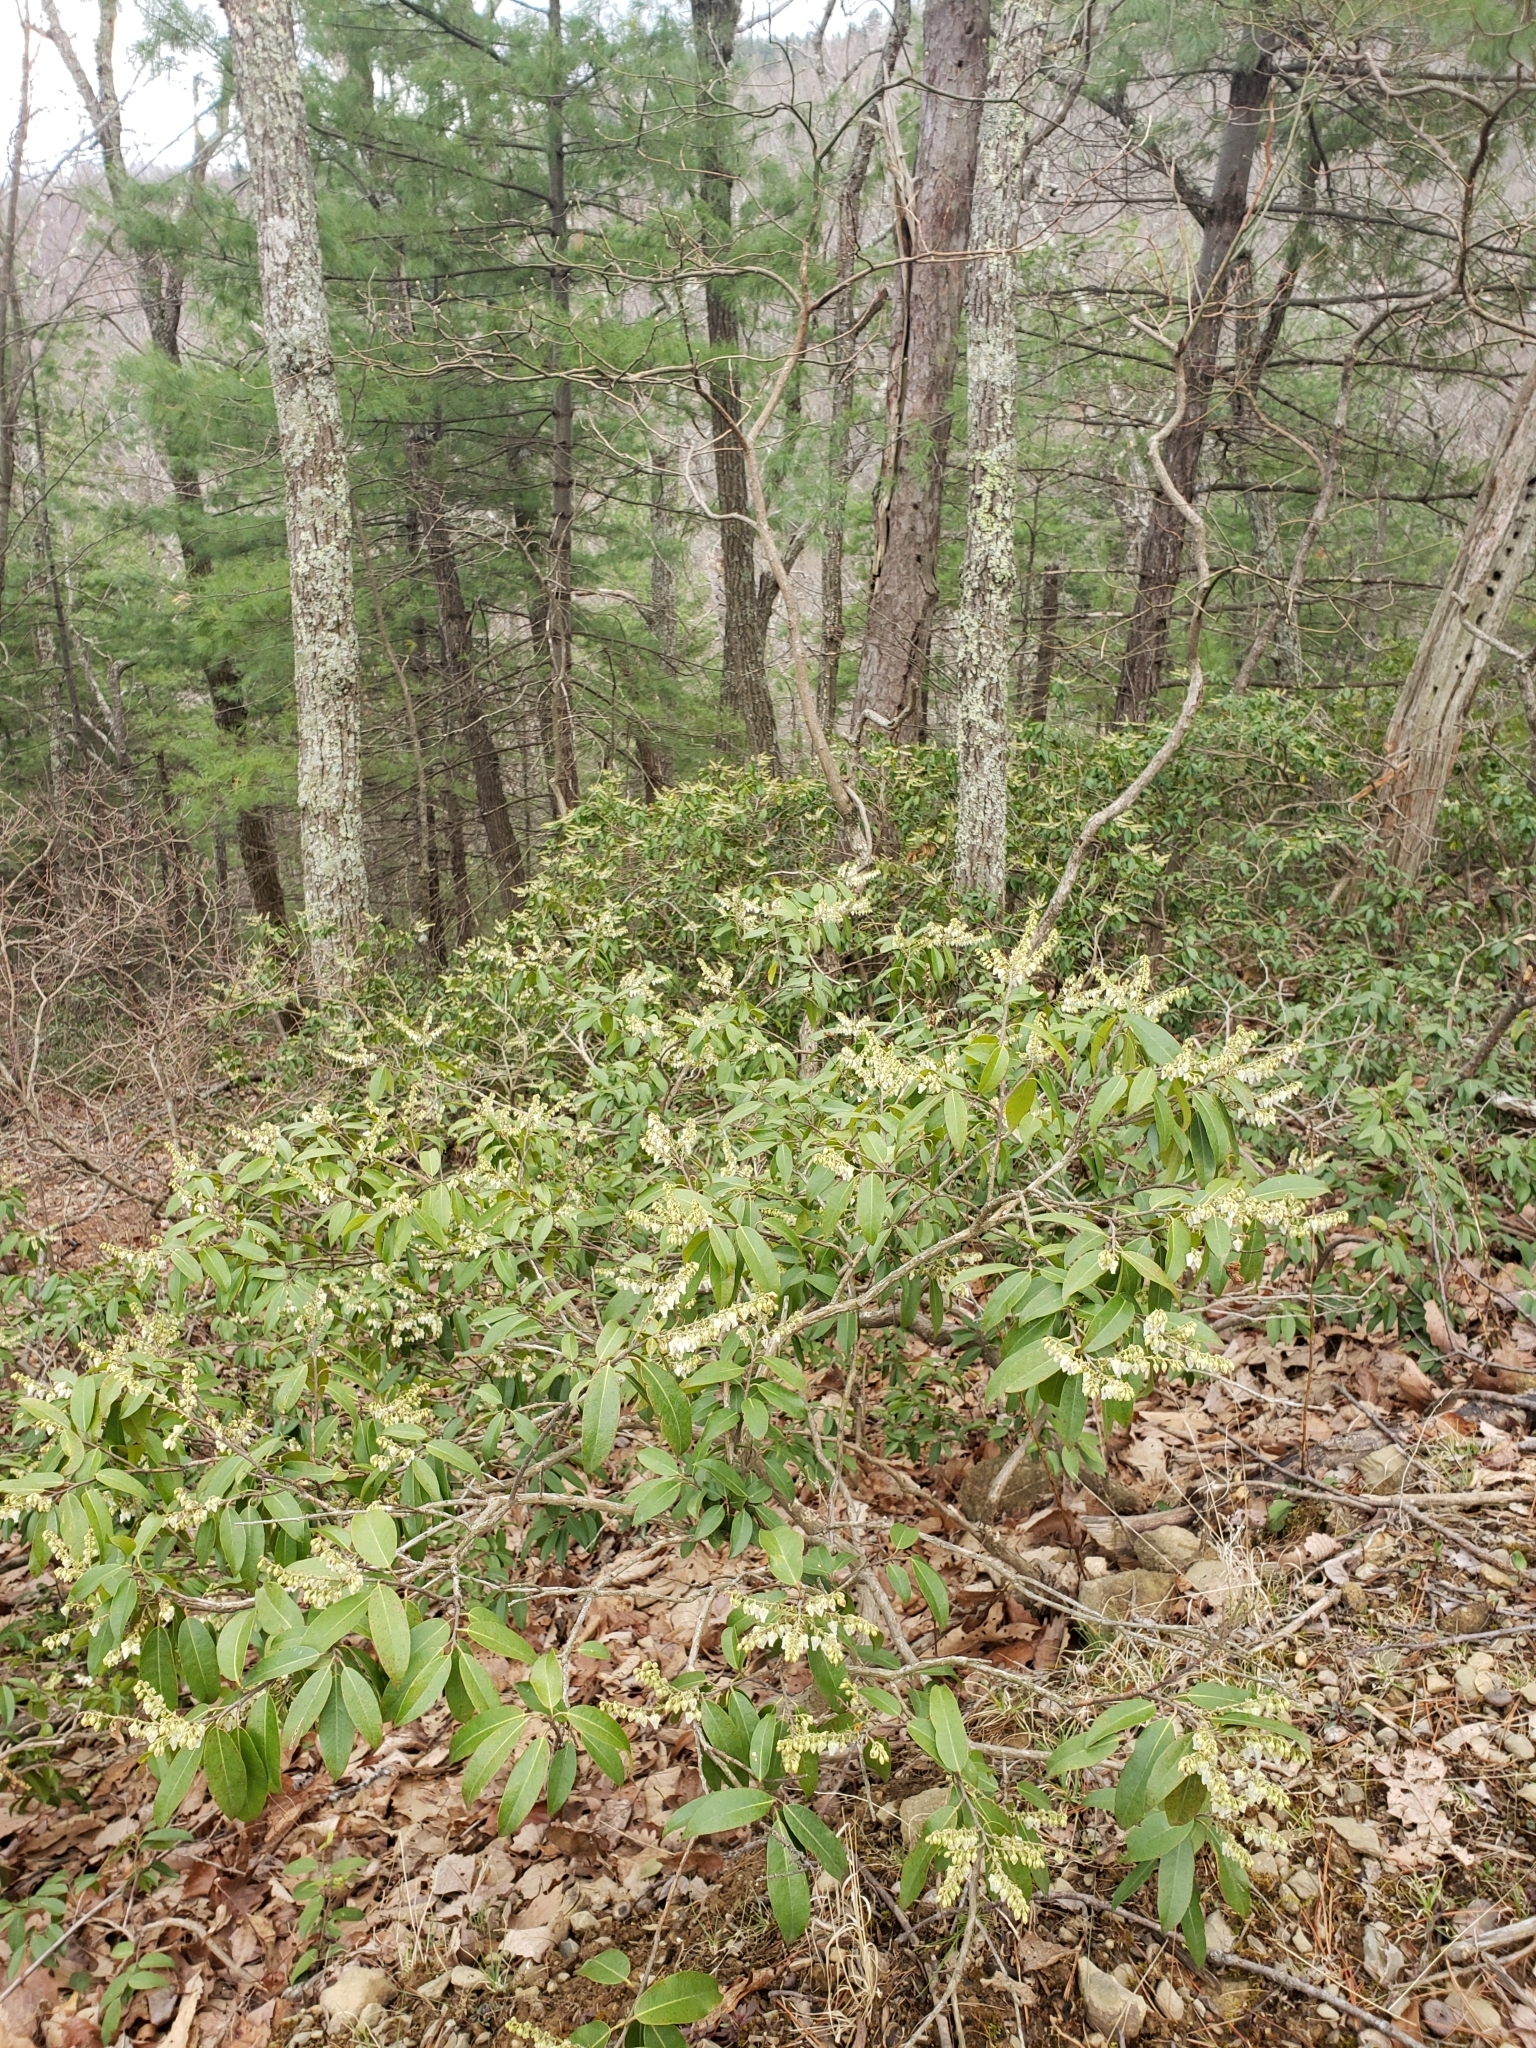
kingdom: Plantae
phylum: Tracheophyta
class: Magnoliopsida
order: Ericales
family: Ericaceae
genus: Pieris
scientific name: Pieris floribunda
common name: Flutterbush
